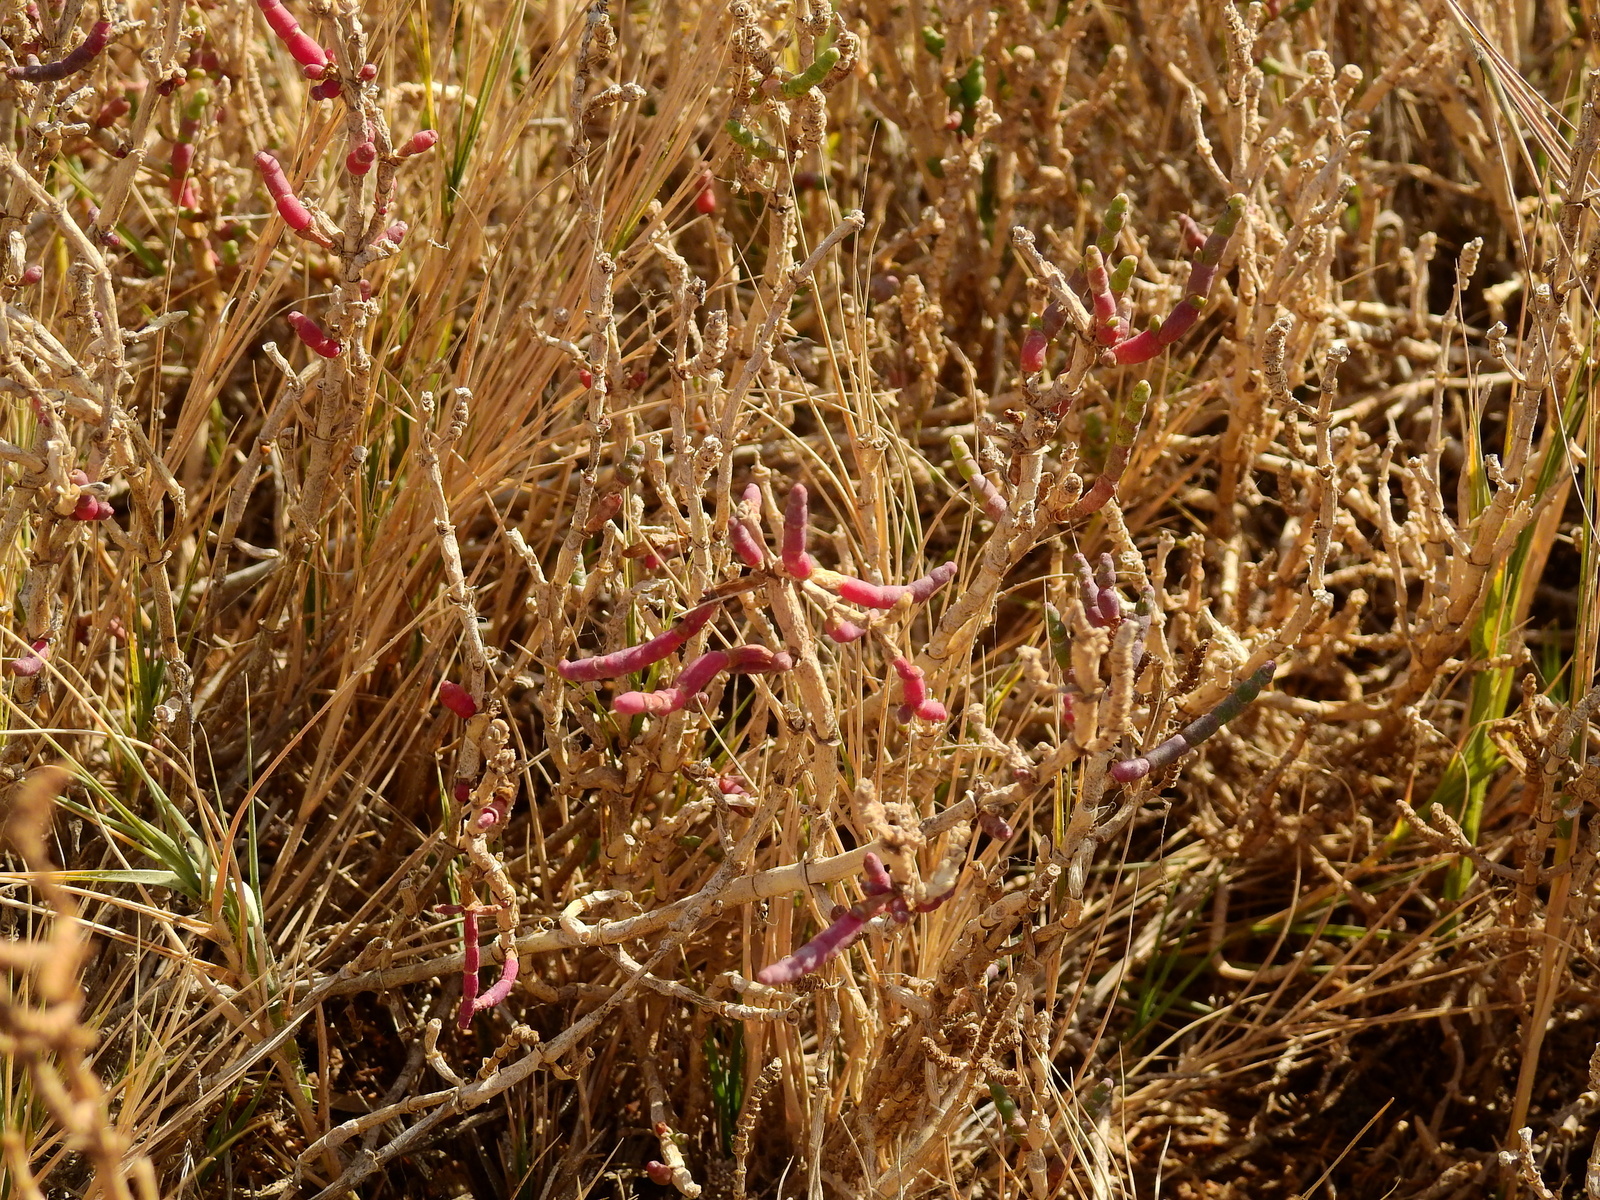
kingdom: Plantae
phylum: Tracheophyta
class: Magnoliopsida
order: Caryophyllales
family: Amaranthaceae
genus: Salicornia
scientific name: Salicornia perennis
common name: Chicken claws
